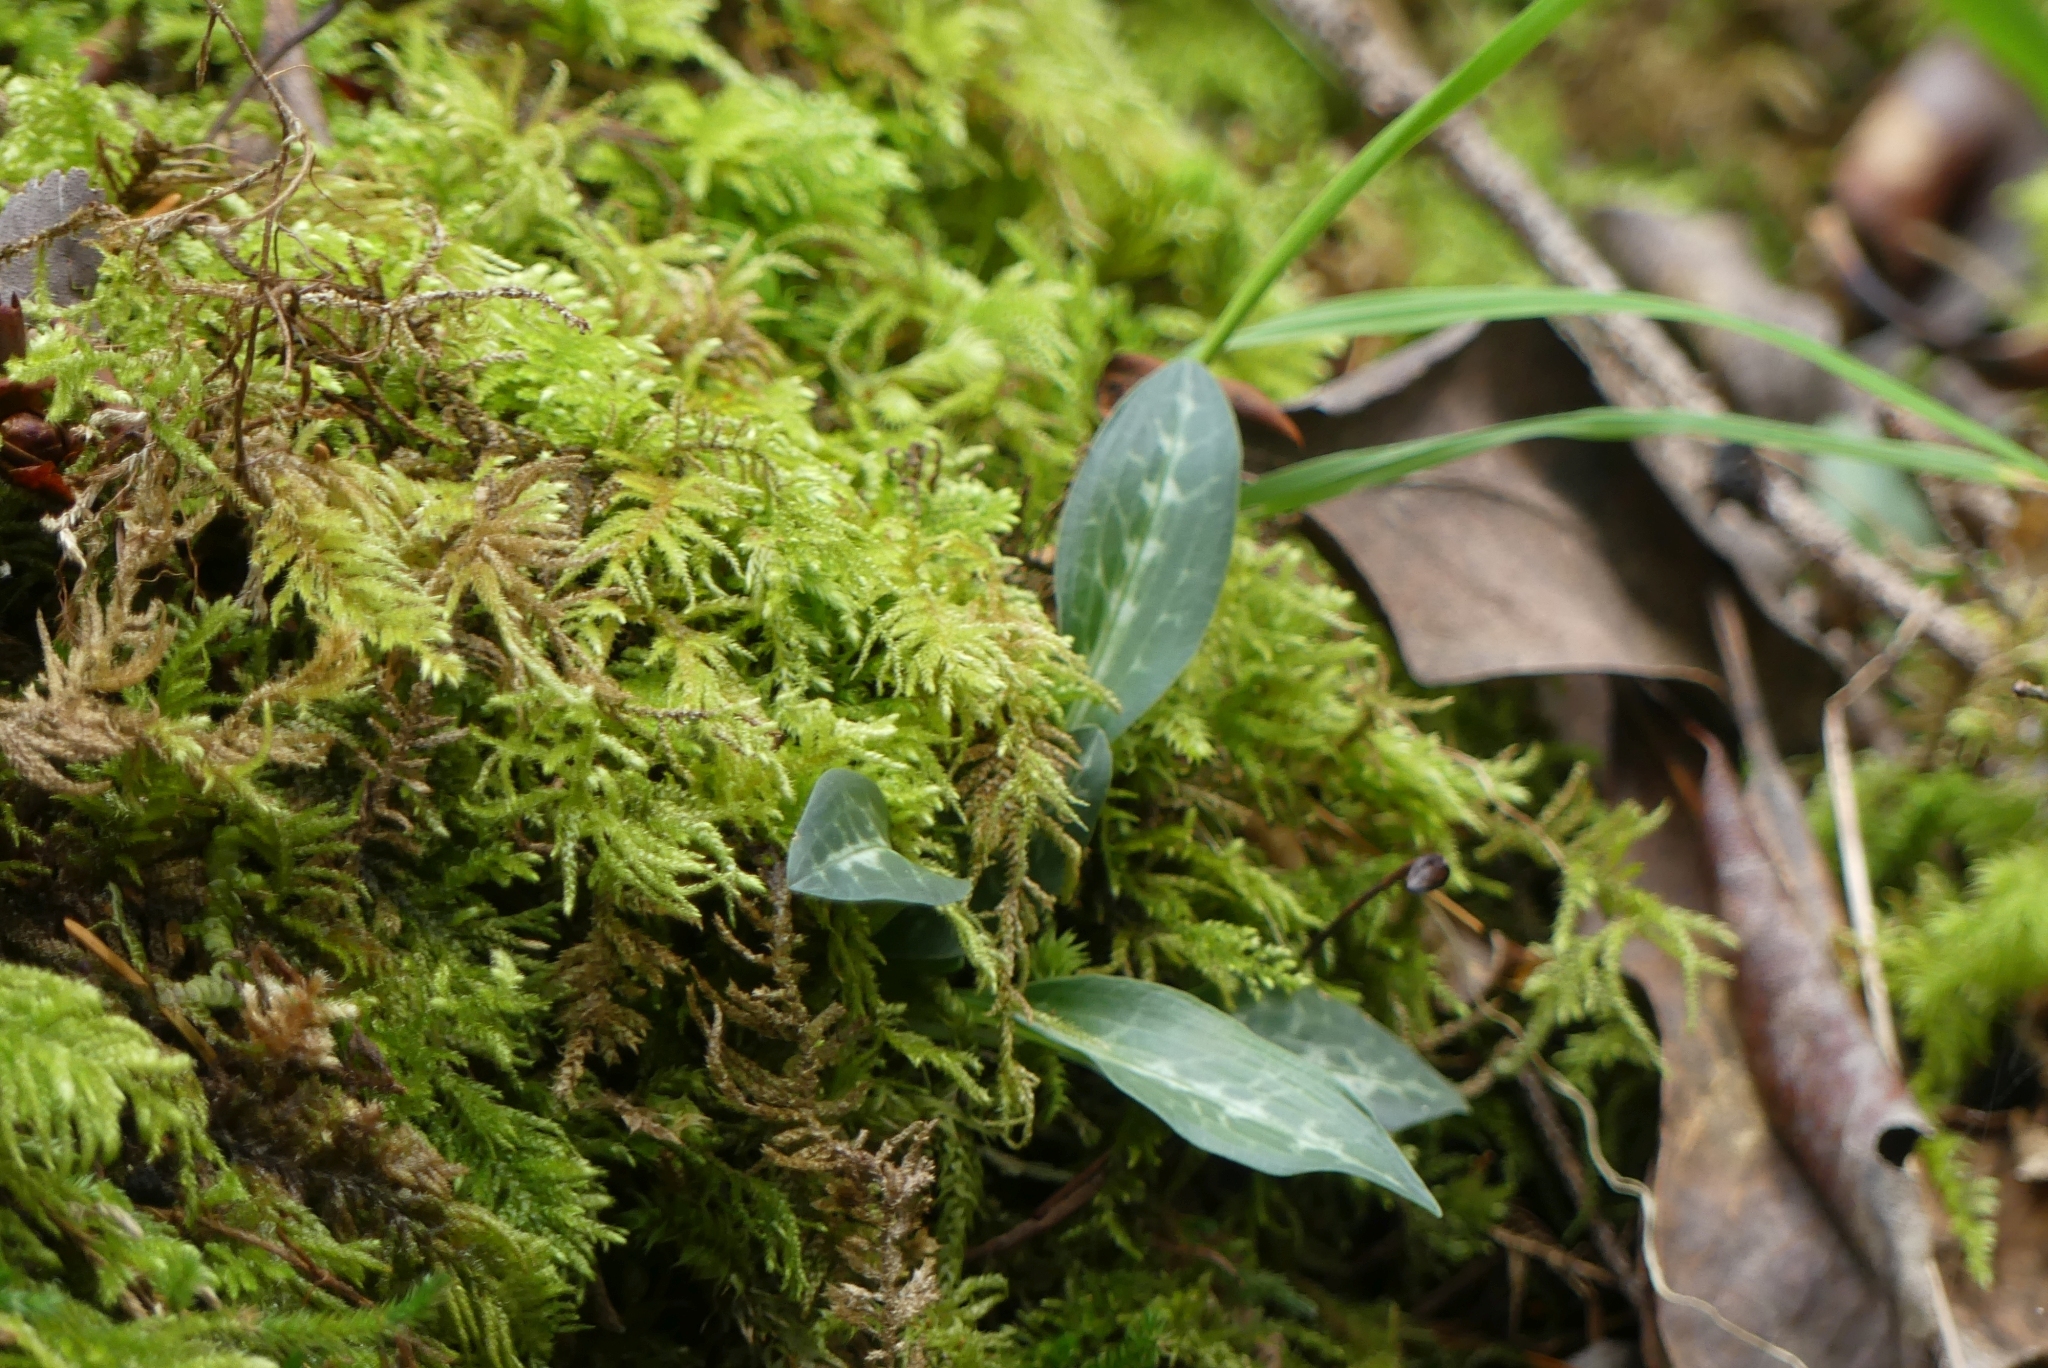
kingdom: Plantae
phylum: Tracheophyta
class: Liliopsida
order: Asparagales
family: Orchidaceae
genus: Goodyera
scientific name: Goodyera oblongifolia
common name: Giant rattlesnake-plantain
